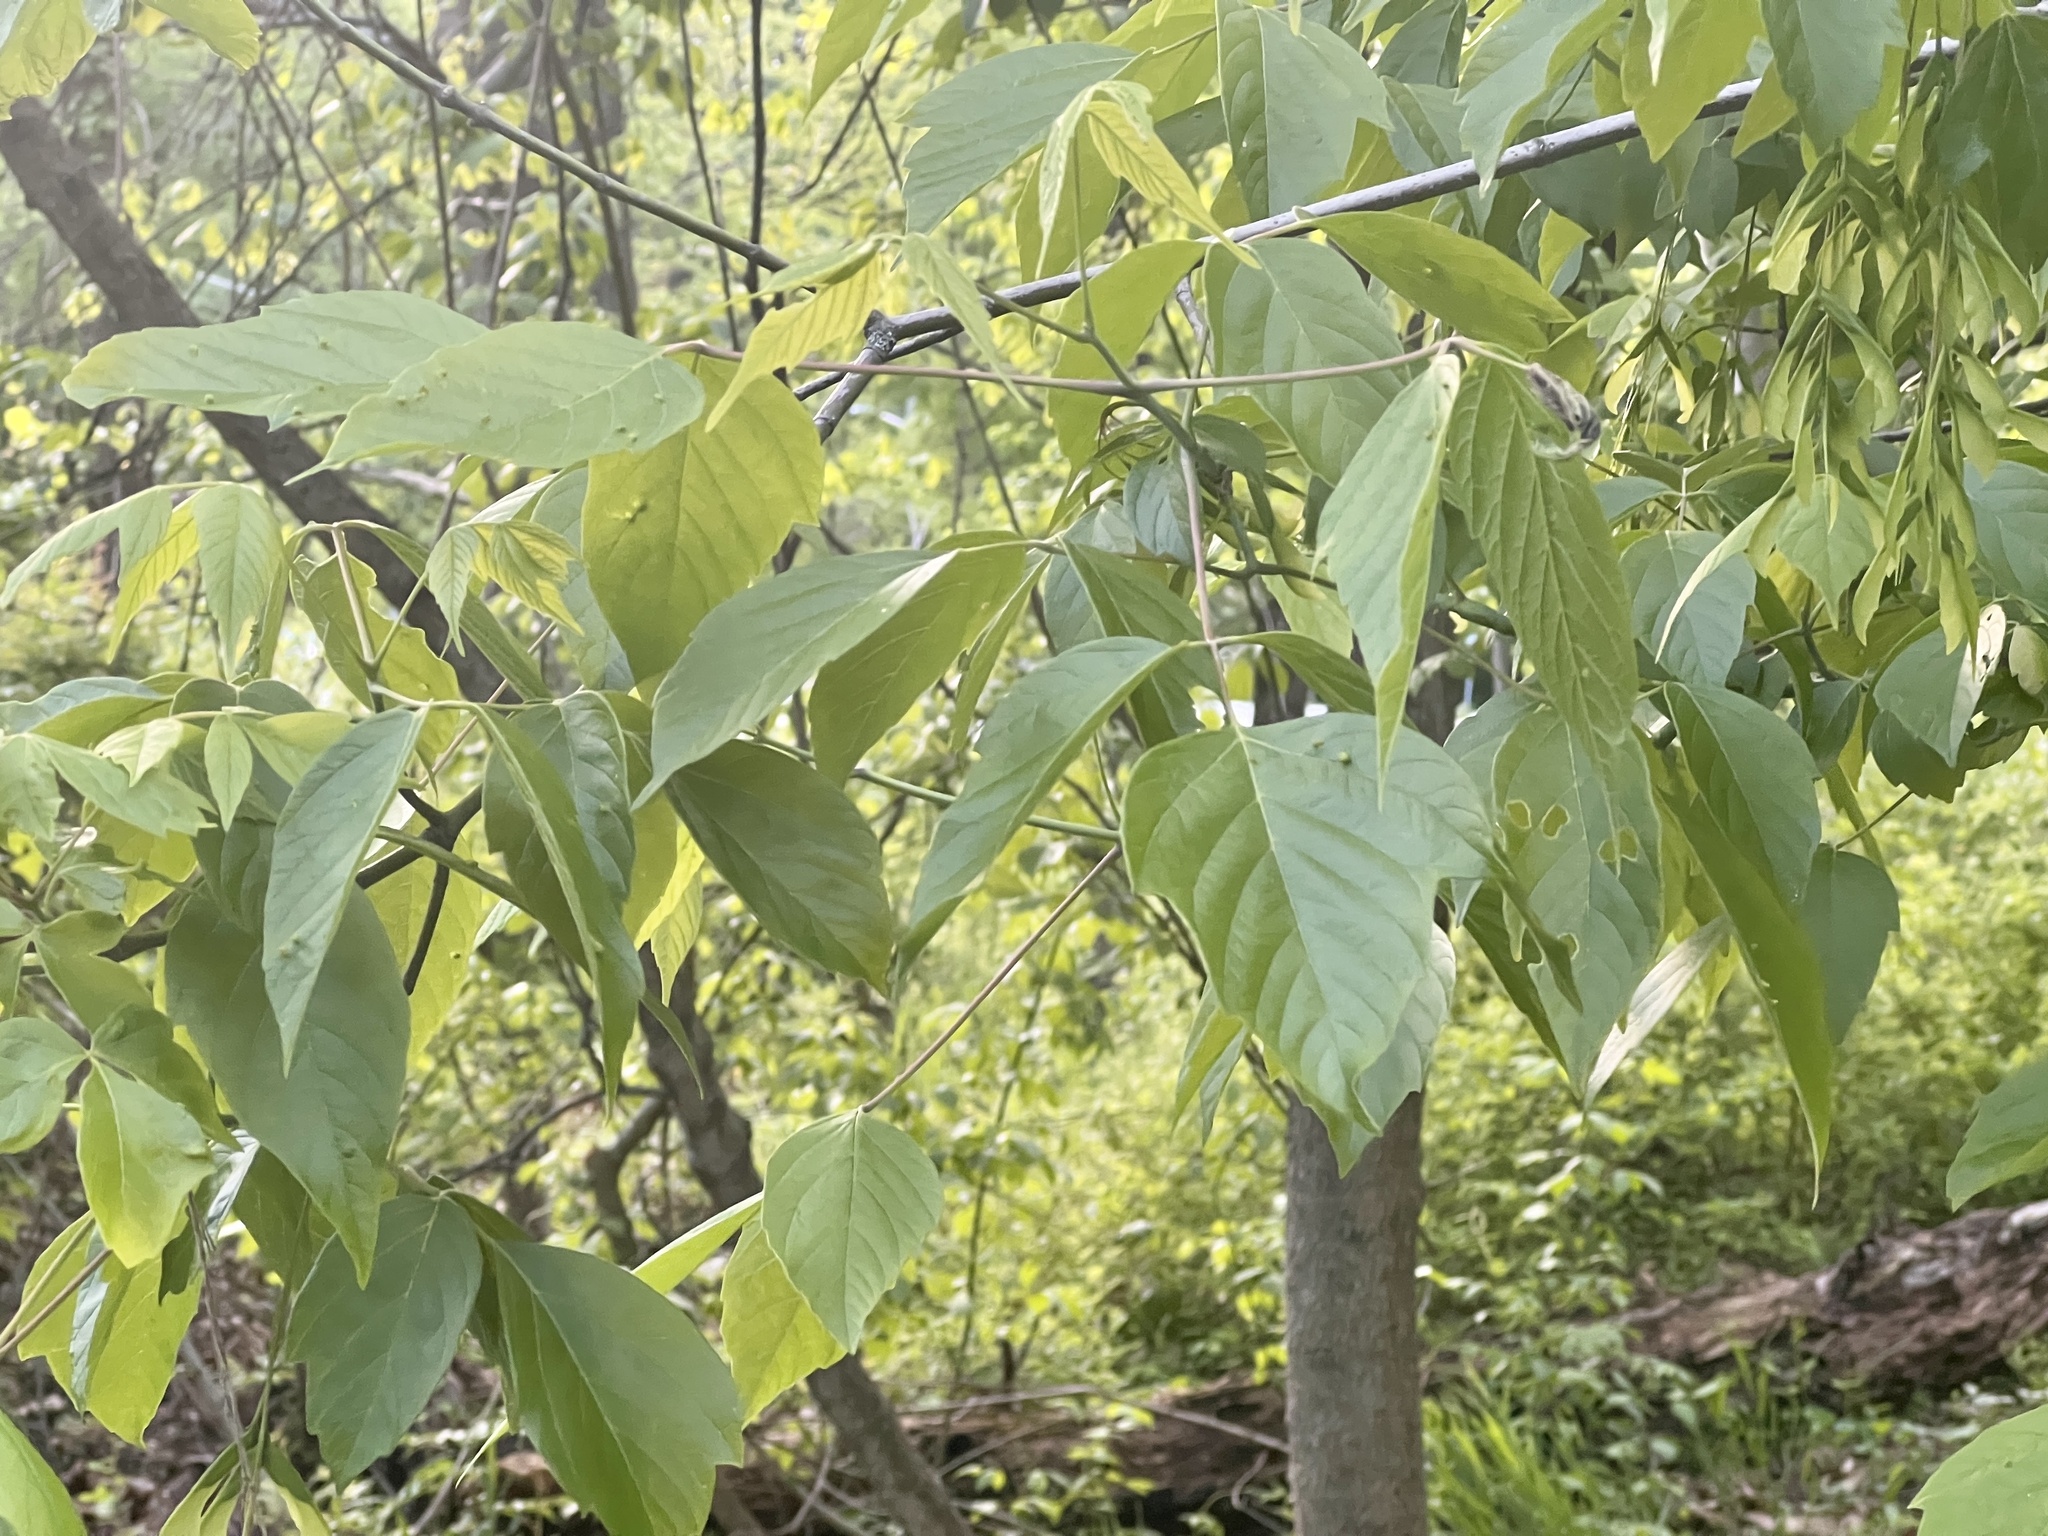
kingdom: Plantae
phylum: Tracheophyta
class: Magnoliopsida
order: Sapindales
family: Sapindaceae
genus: Acer
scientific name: Acer negundo
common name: Ashleaf maple
